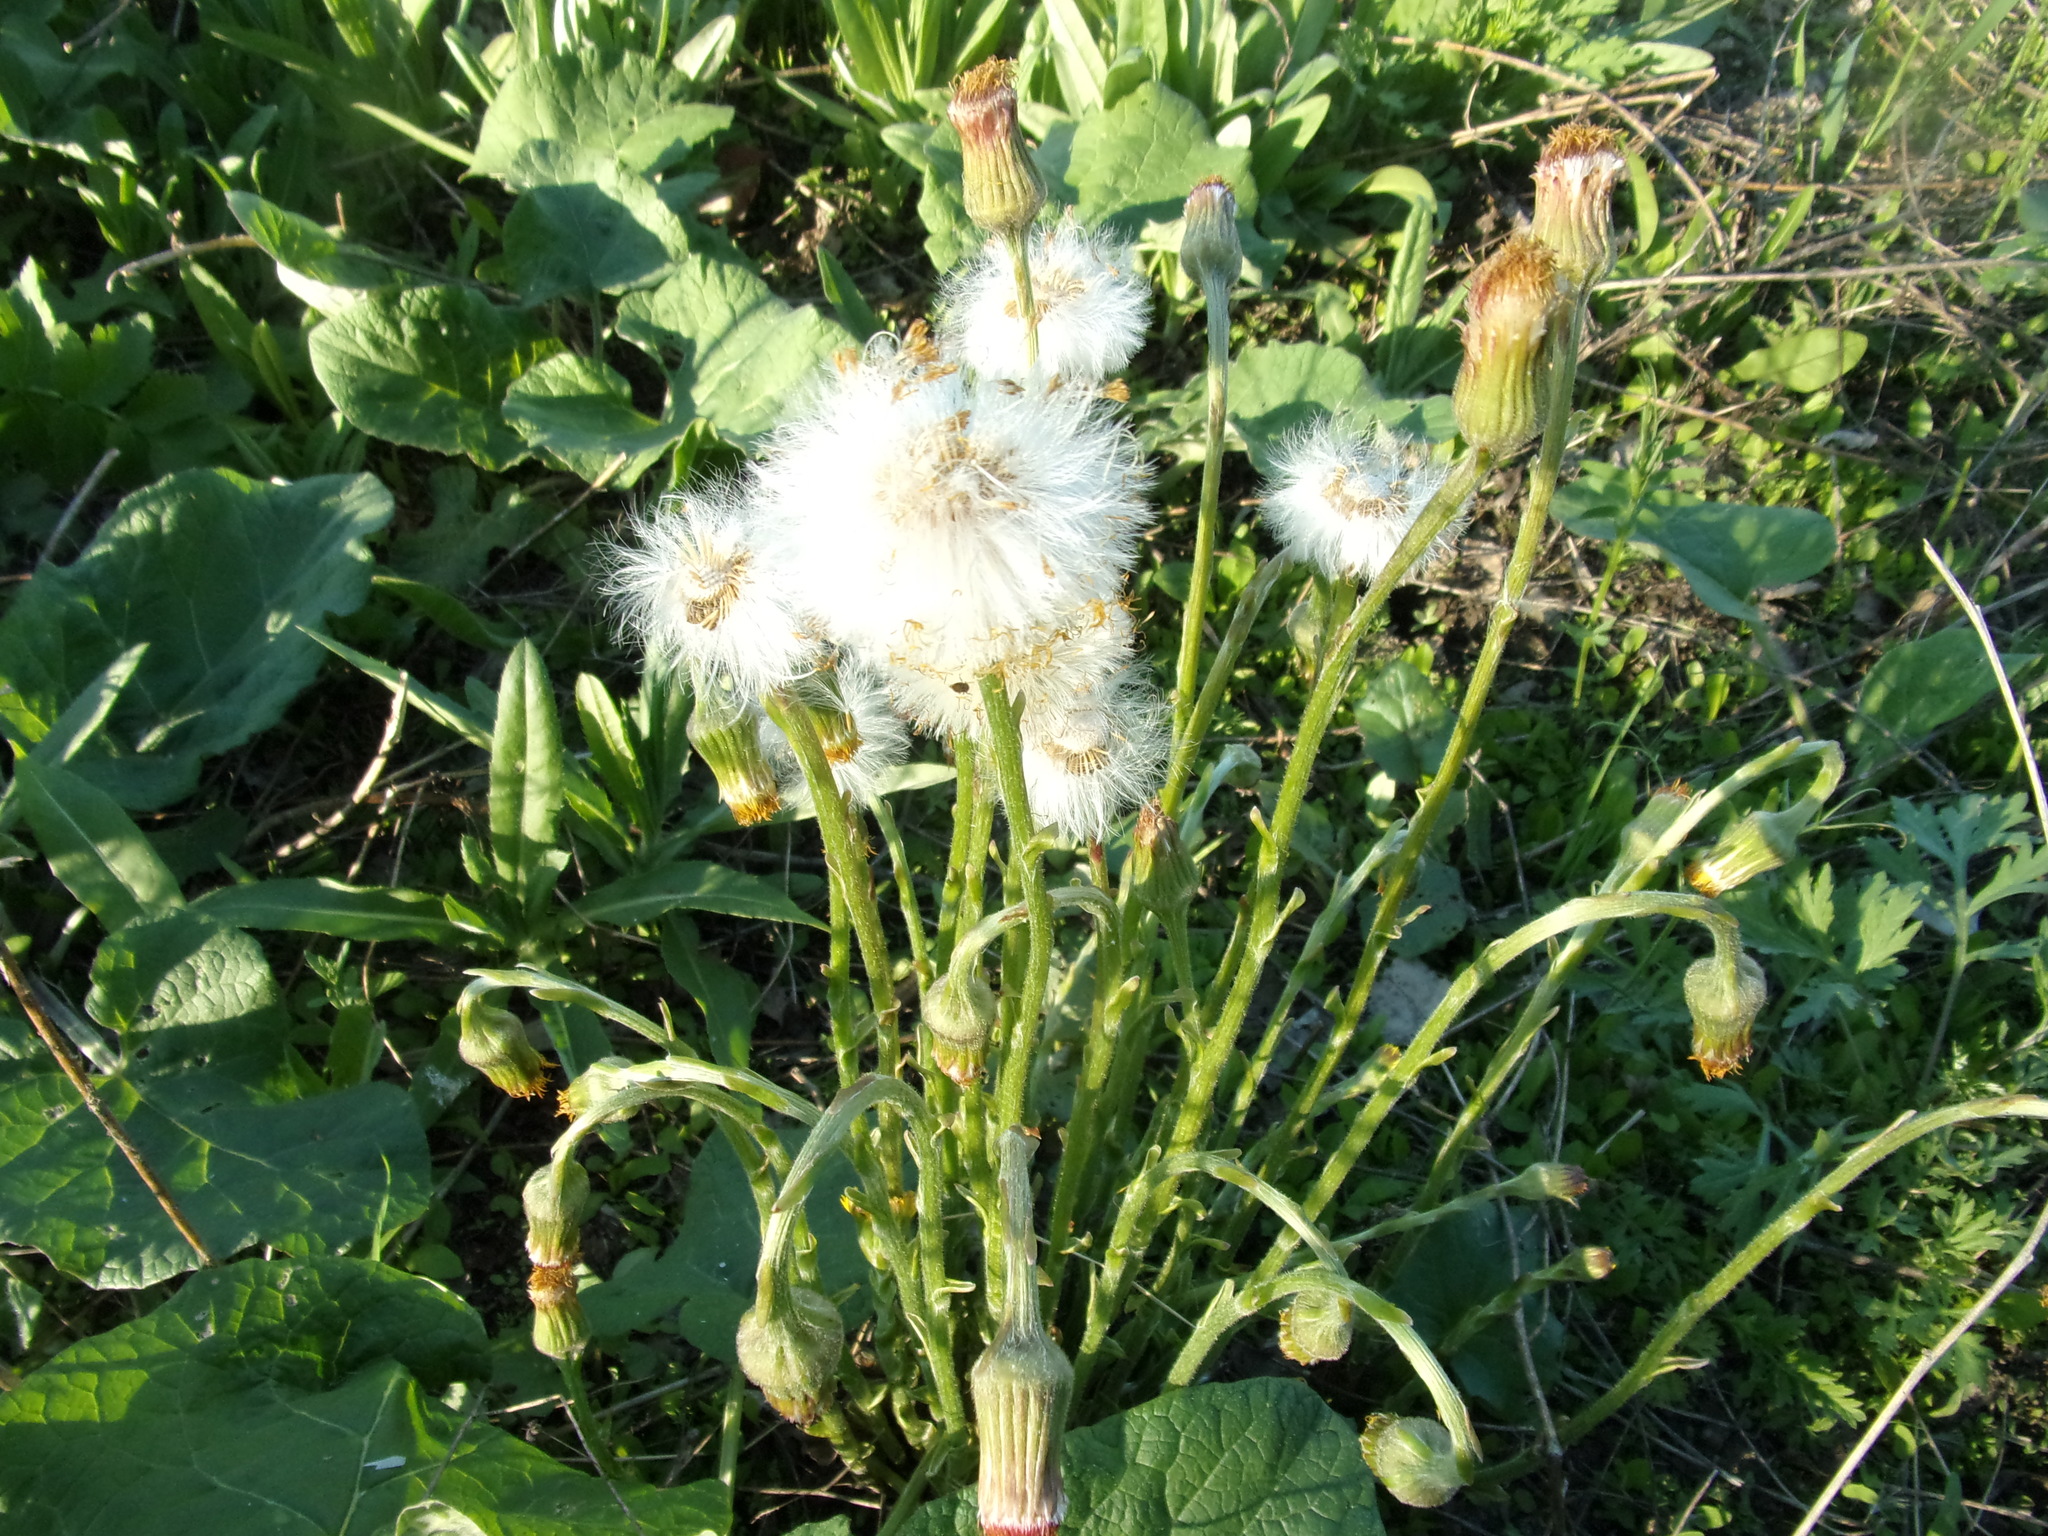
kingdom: Plantae
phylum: Tracheophyta
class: Magnoliopsida
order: Asterales
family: Asteraceae
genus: Tussilago
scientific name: Tussilago farfara
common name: Coltsfoot
